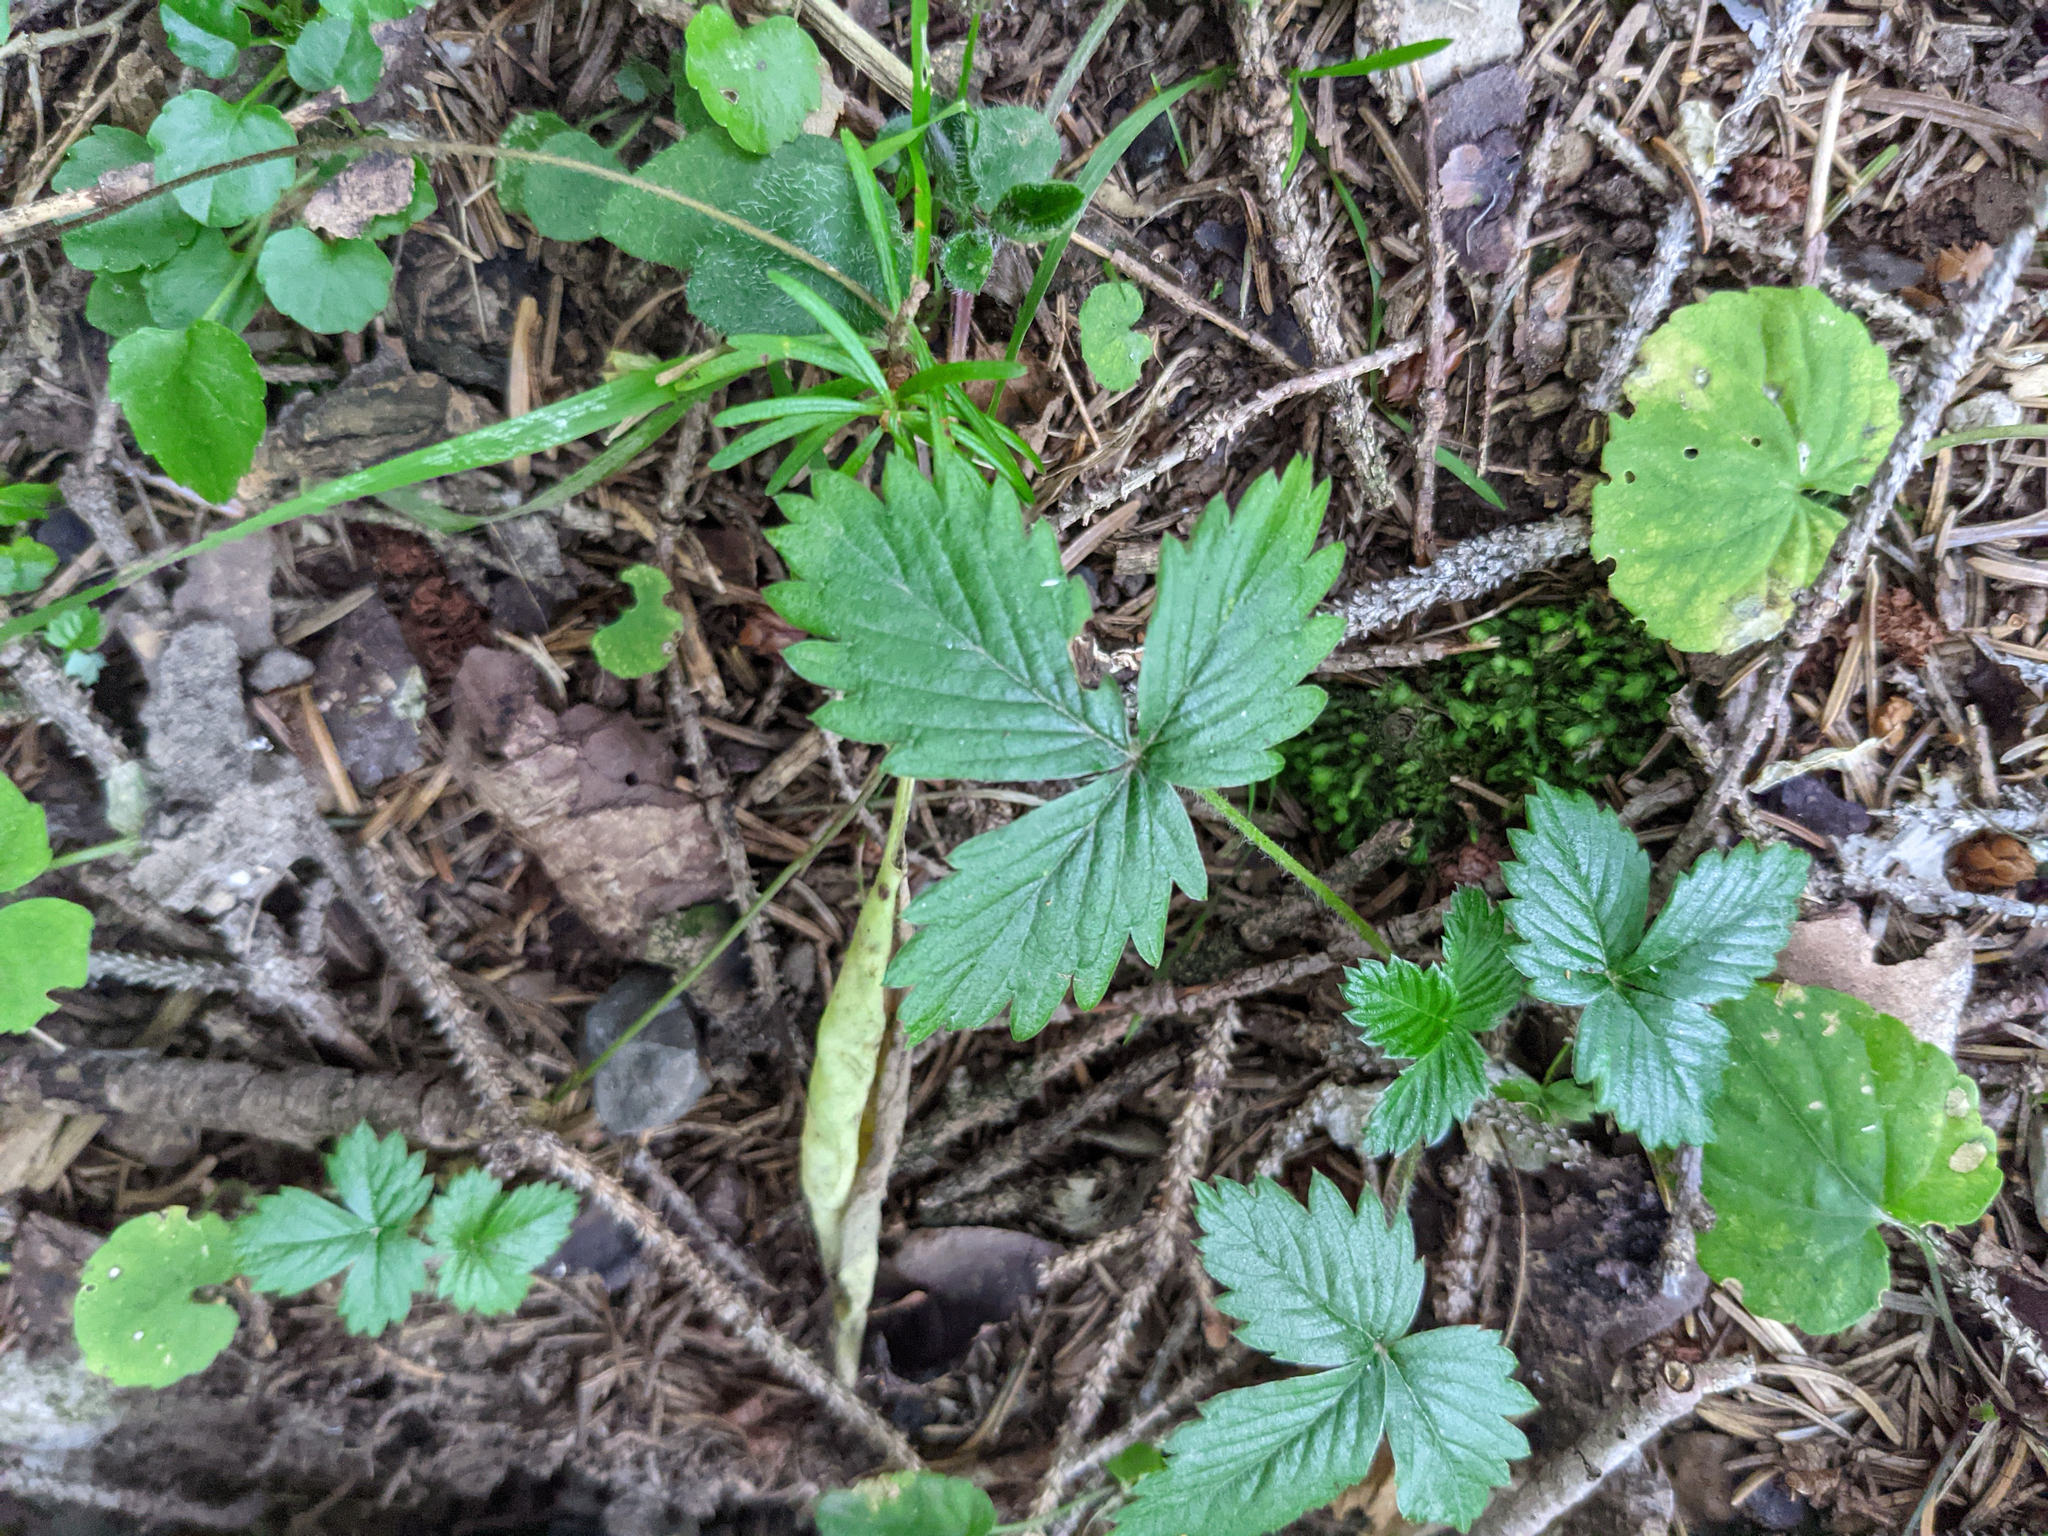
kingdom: Plantae
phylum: Tracheophyta
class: Magnoliopsida
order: Rosales
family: Rosaceae
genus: Fragaria
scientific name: Fragaria vesca
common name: Wild strawberry
